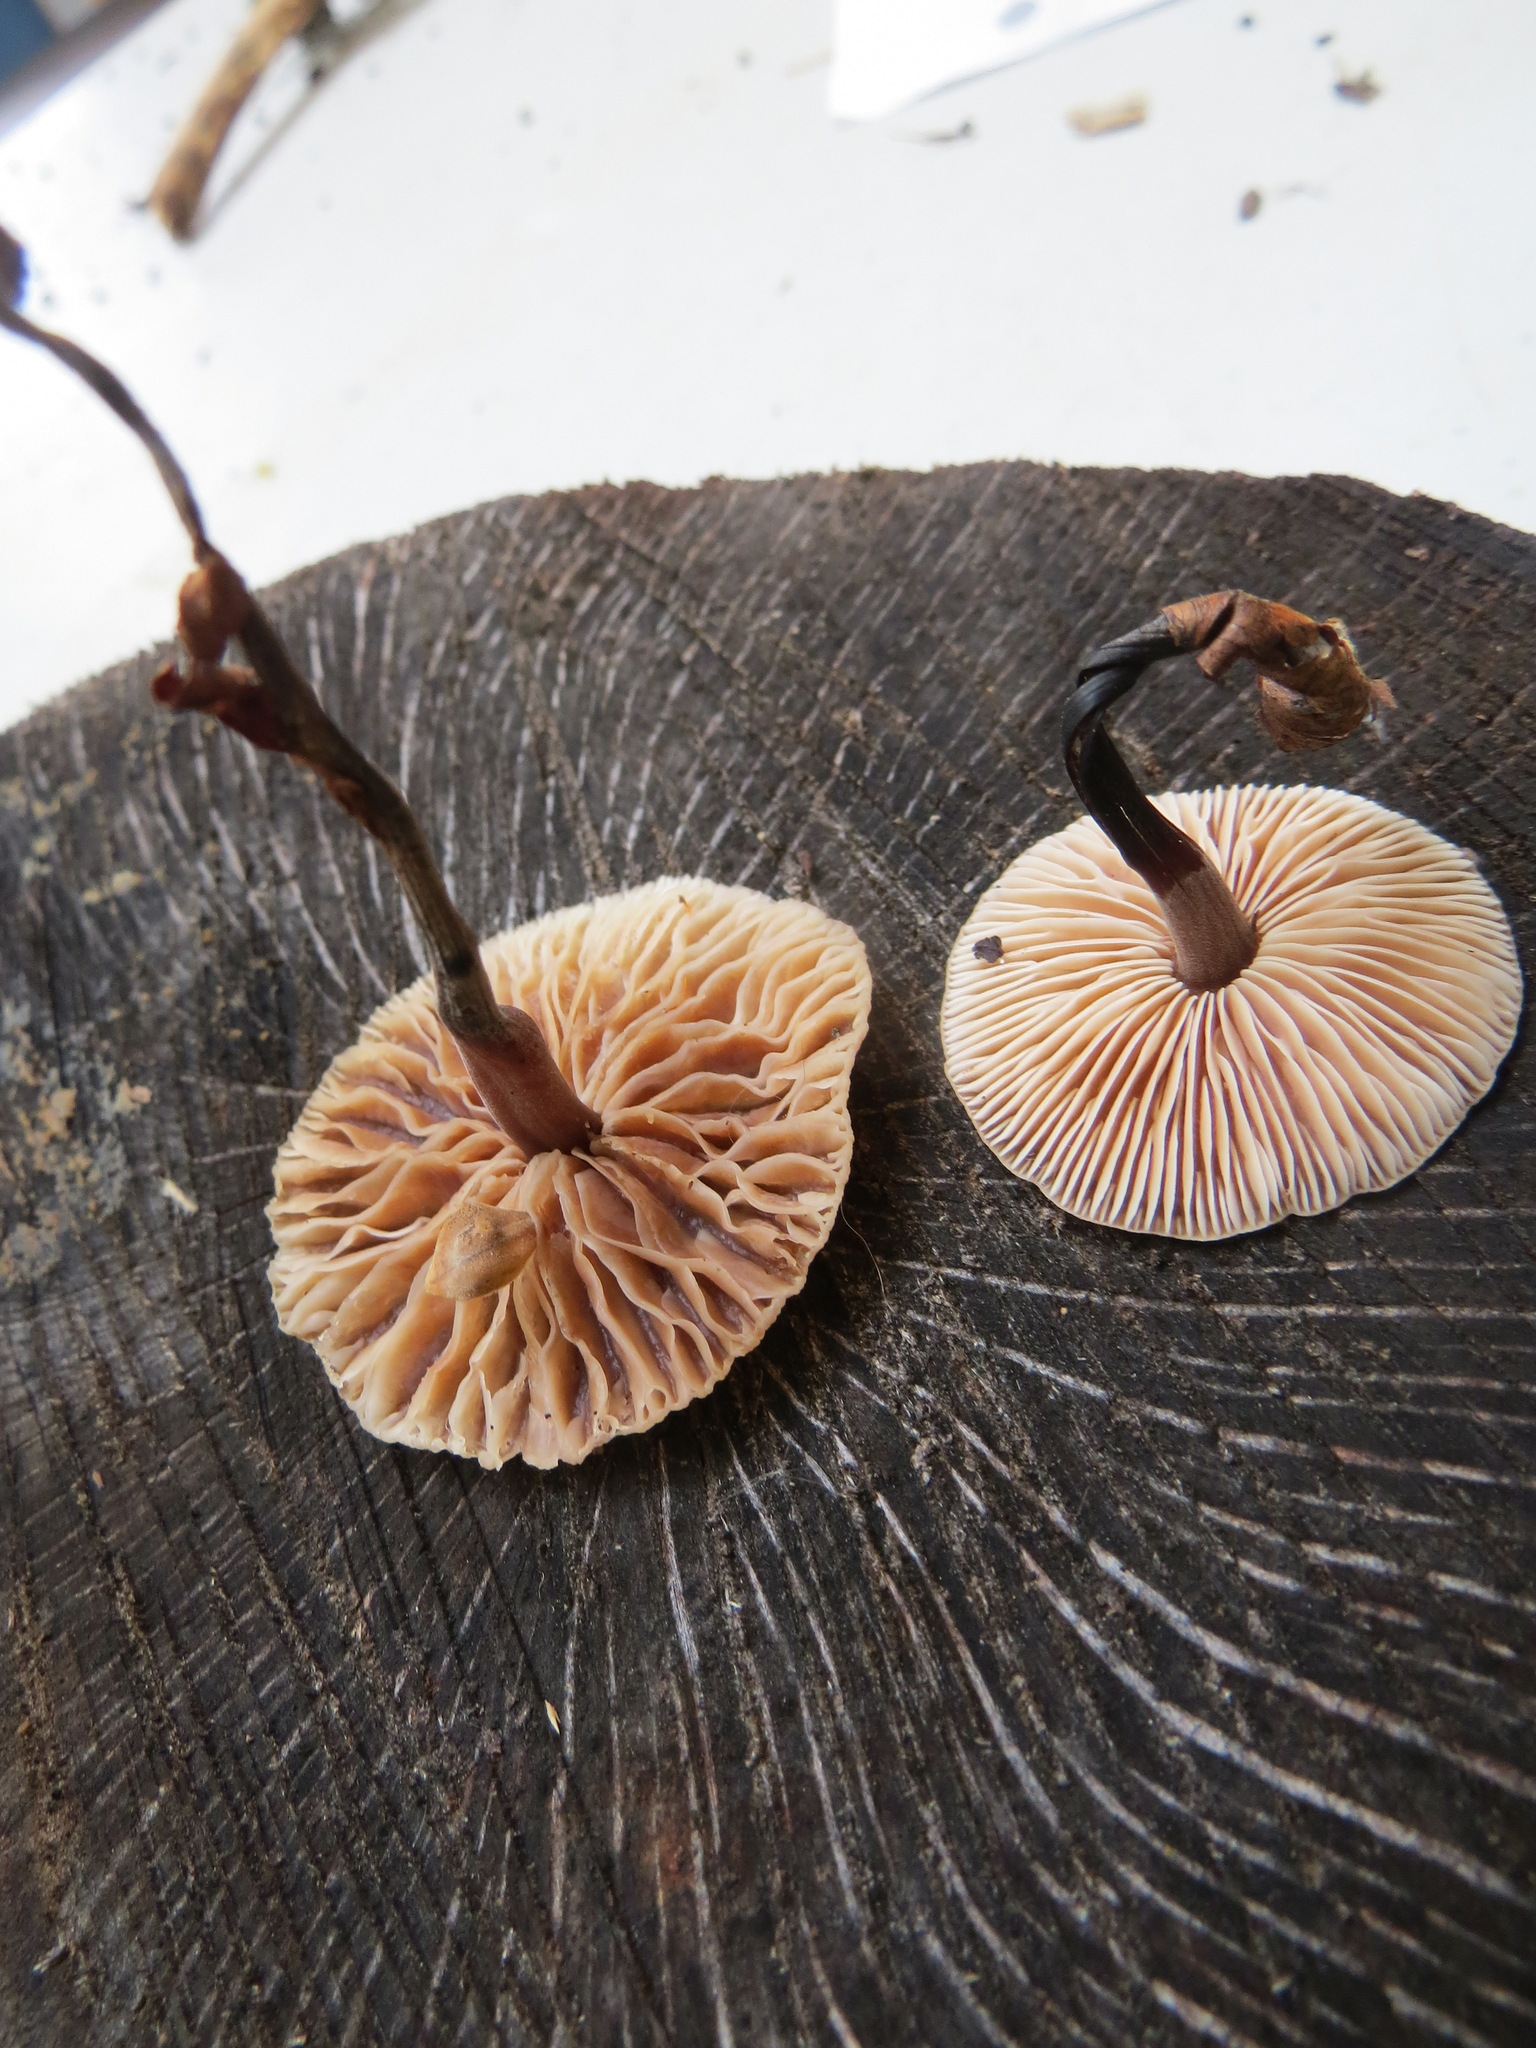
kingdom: Fungi
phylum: Basidiomycota
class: Agaricomycetes
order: Agaricales
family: Omphalotaceae
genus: Gymnopus
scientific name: Gymnopus brassicolens
